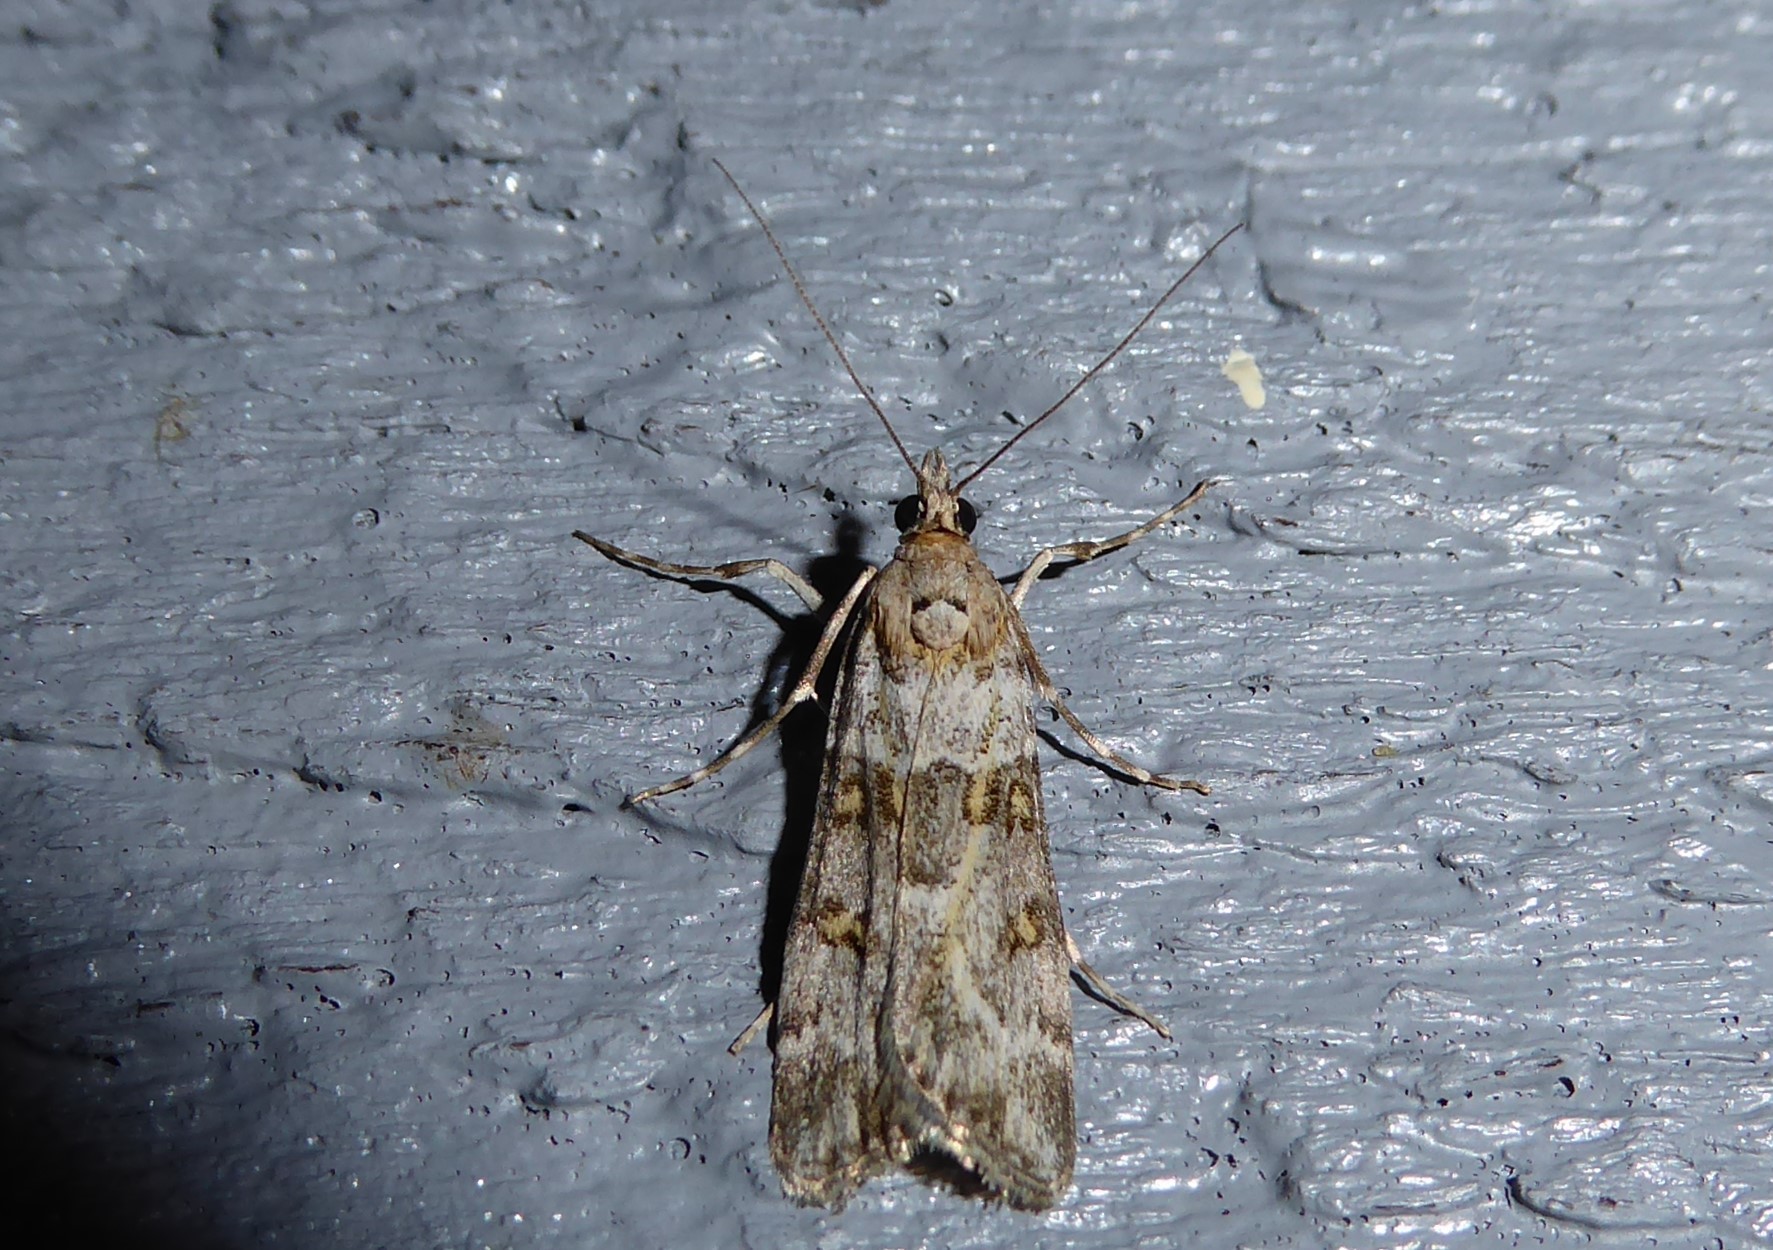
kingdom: Animalia
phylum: Arthropoda
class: Insecta
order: Lepidoptera
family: Crambidae
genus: Eudonia
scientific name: Eudonia diphtheralis
